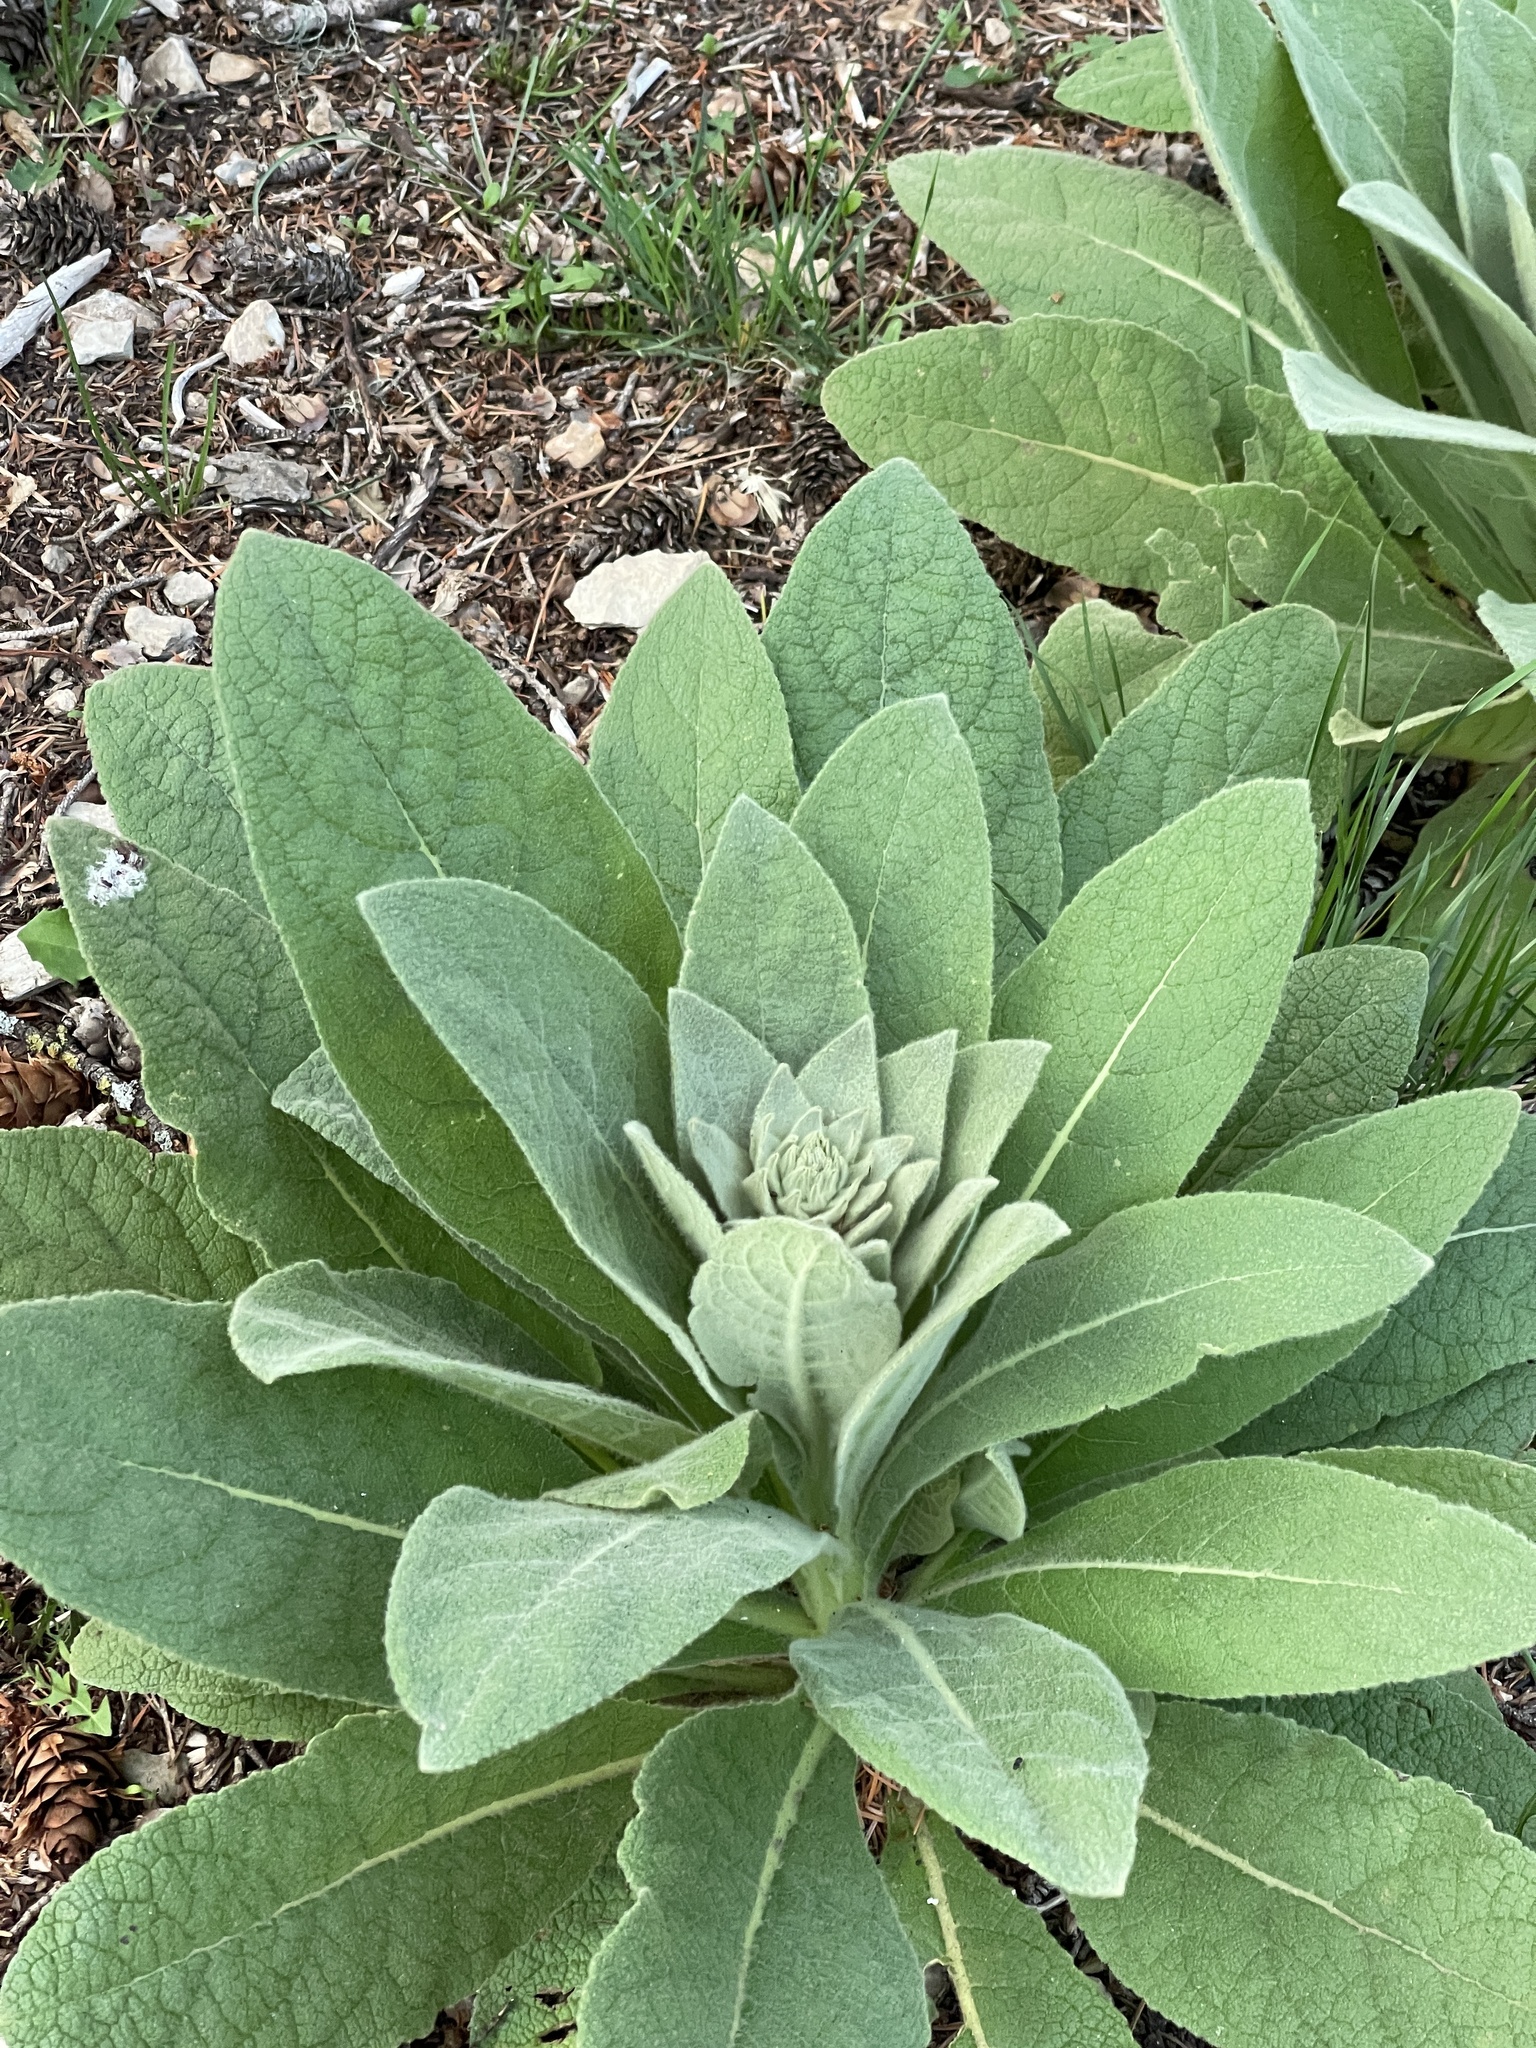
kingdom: Plantae
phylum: Tracheophyta
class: Magnoliopsida
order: Lamiales
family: Scrophulariaceae
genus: Verbascum
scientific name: Verbascum thapsus
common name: Common mullein
